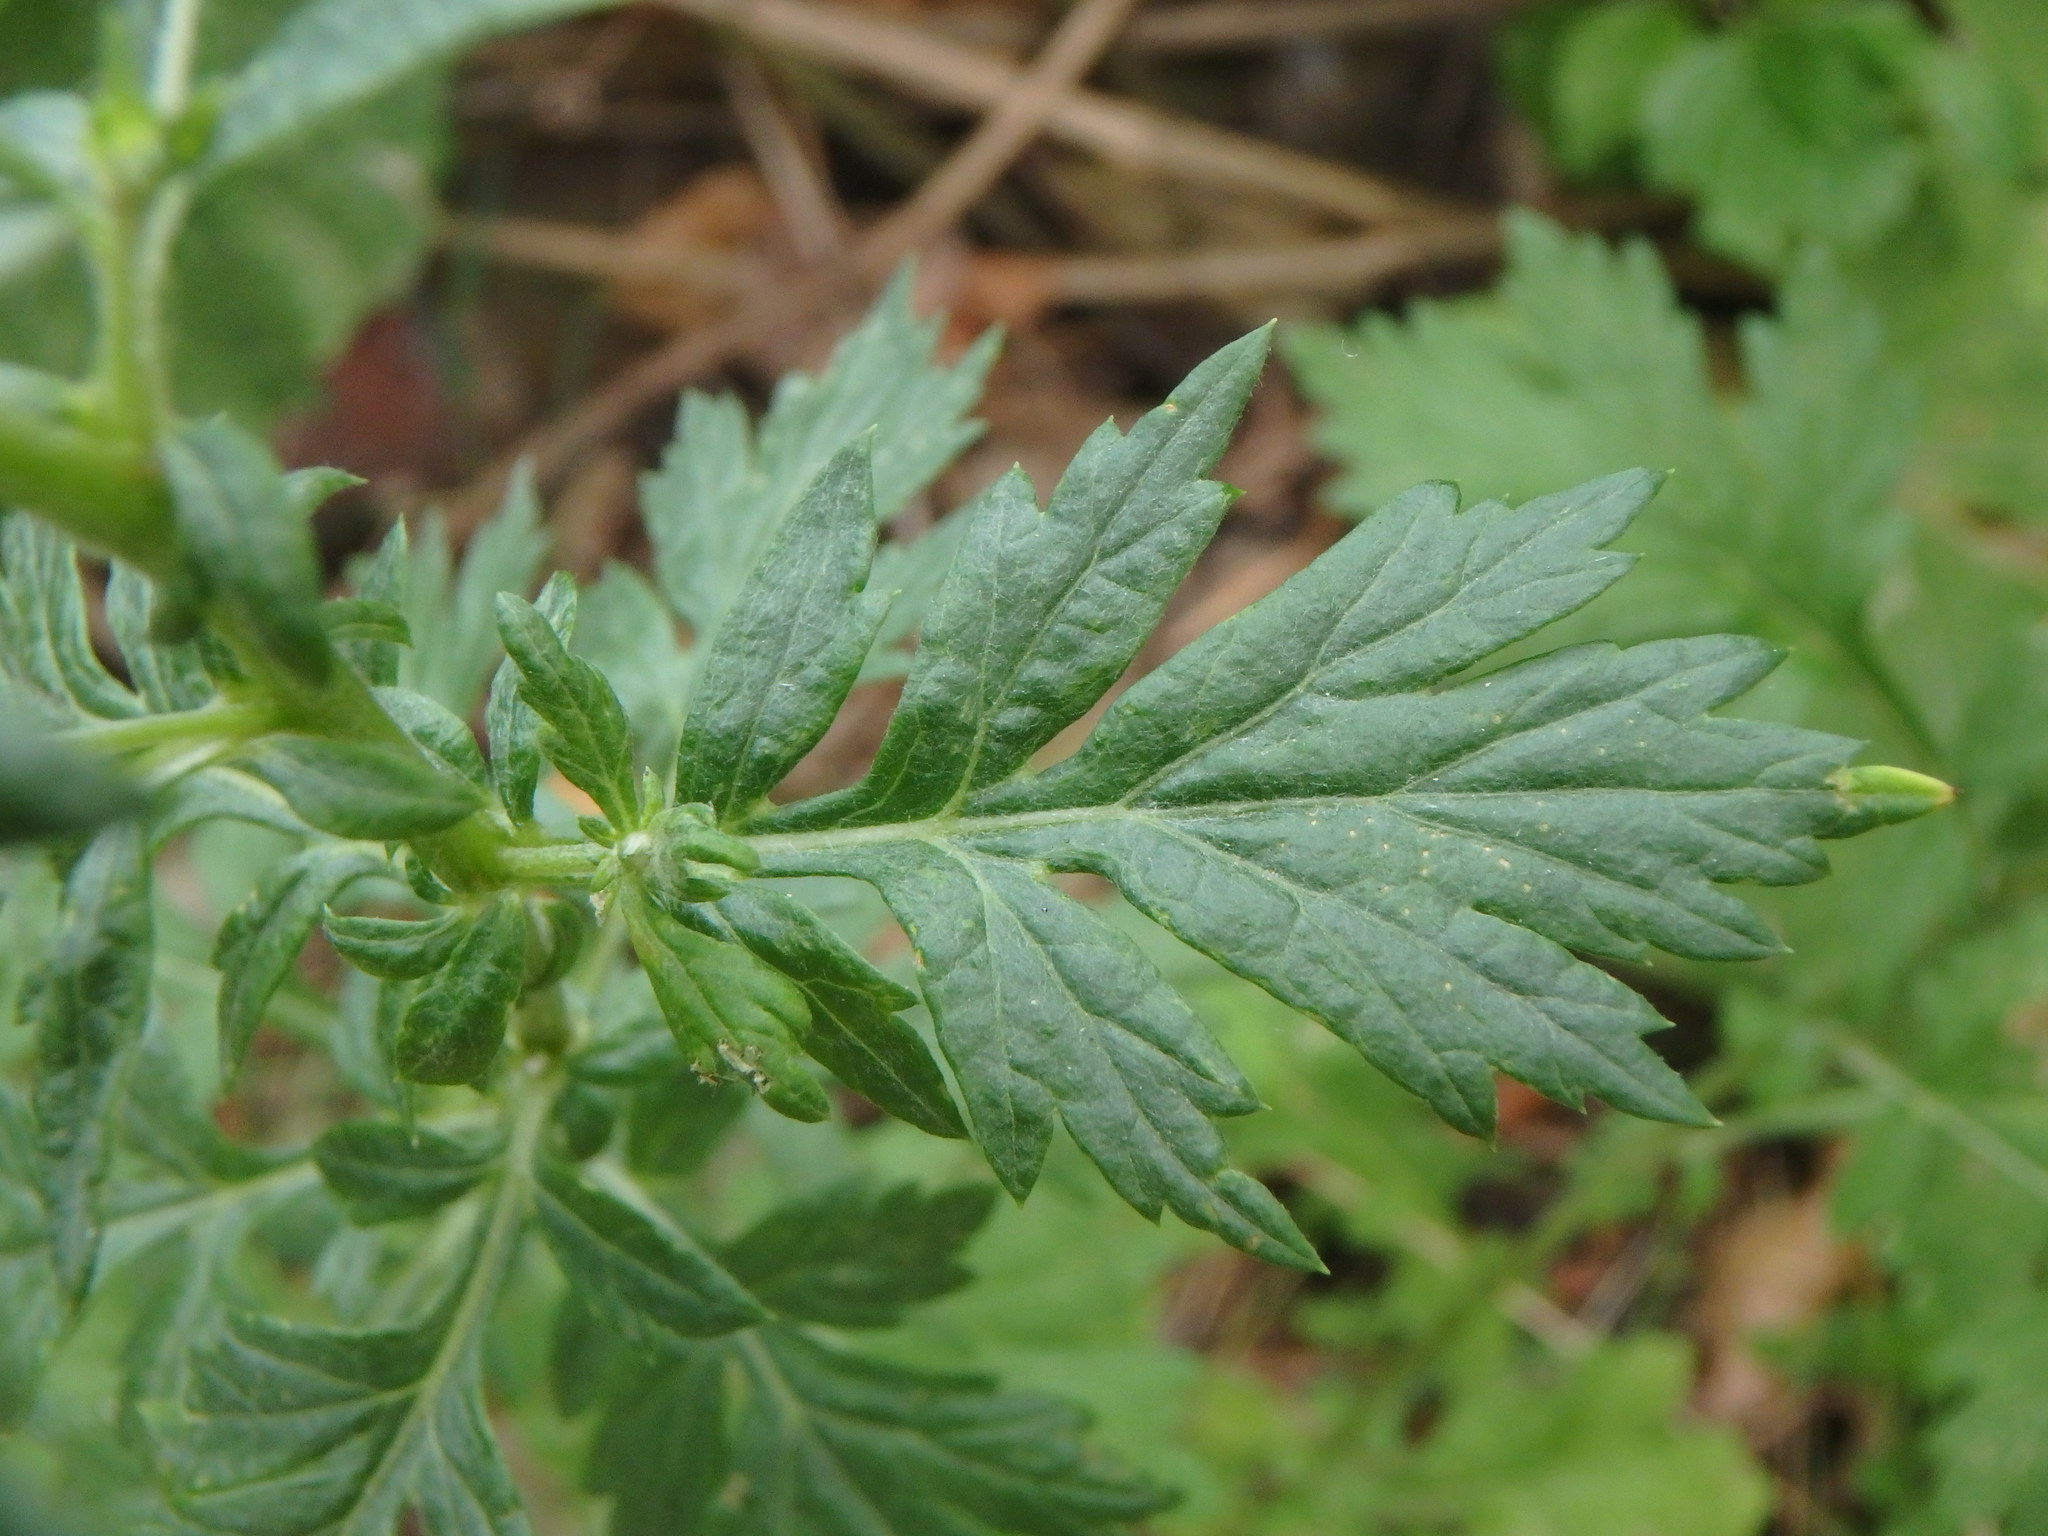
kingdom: Plantae
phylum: Tracheophyta
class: Magnoliopsida
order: Asterales
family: Asteraceae
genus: Artemisia
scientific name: Artemisia vulgaris
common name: Mugwort
